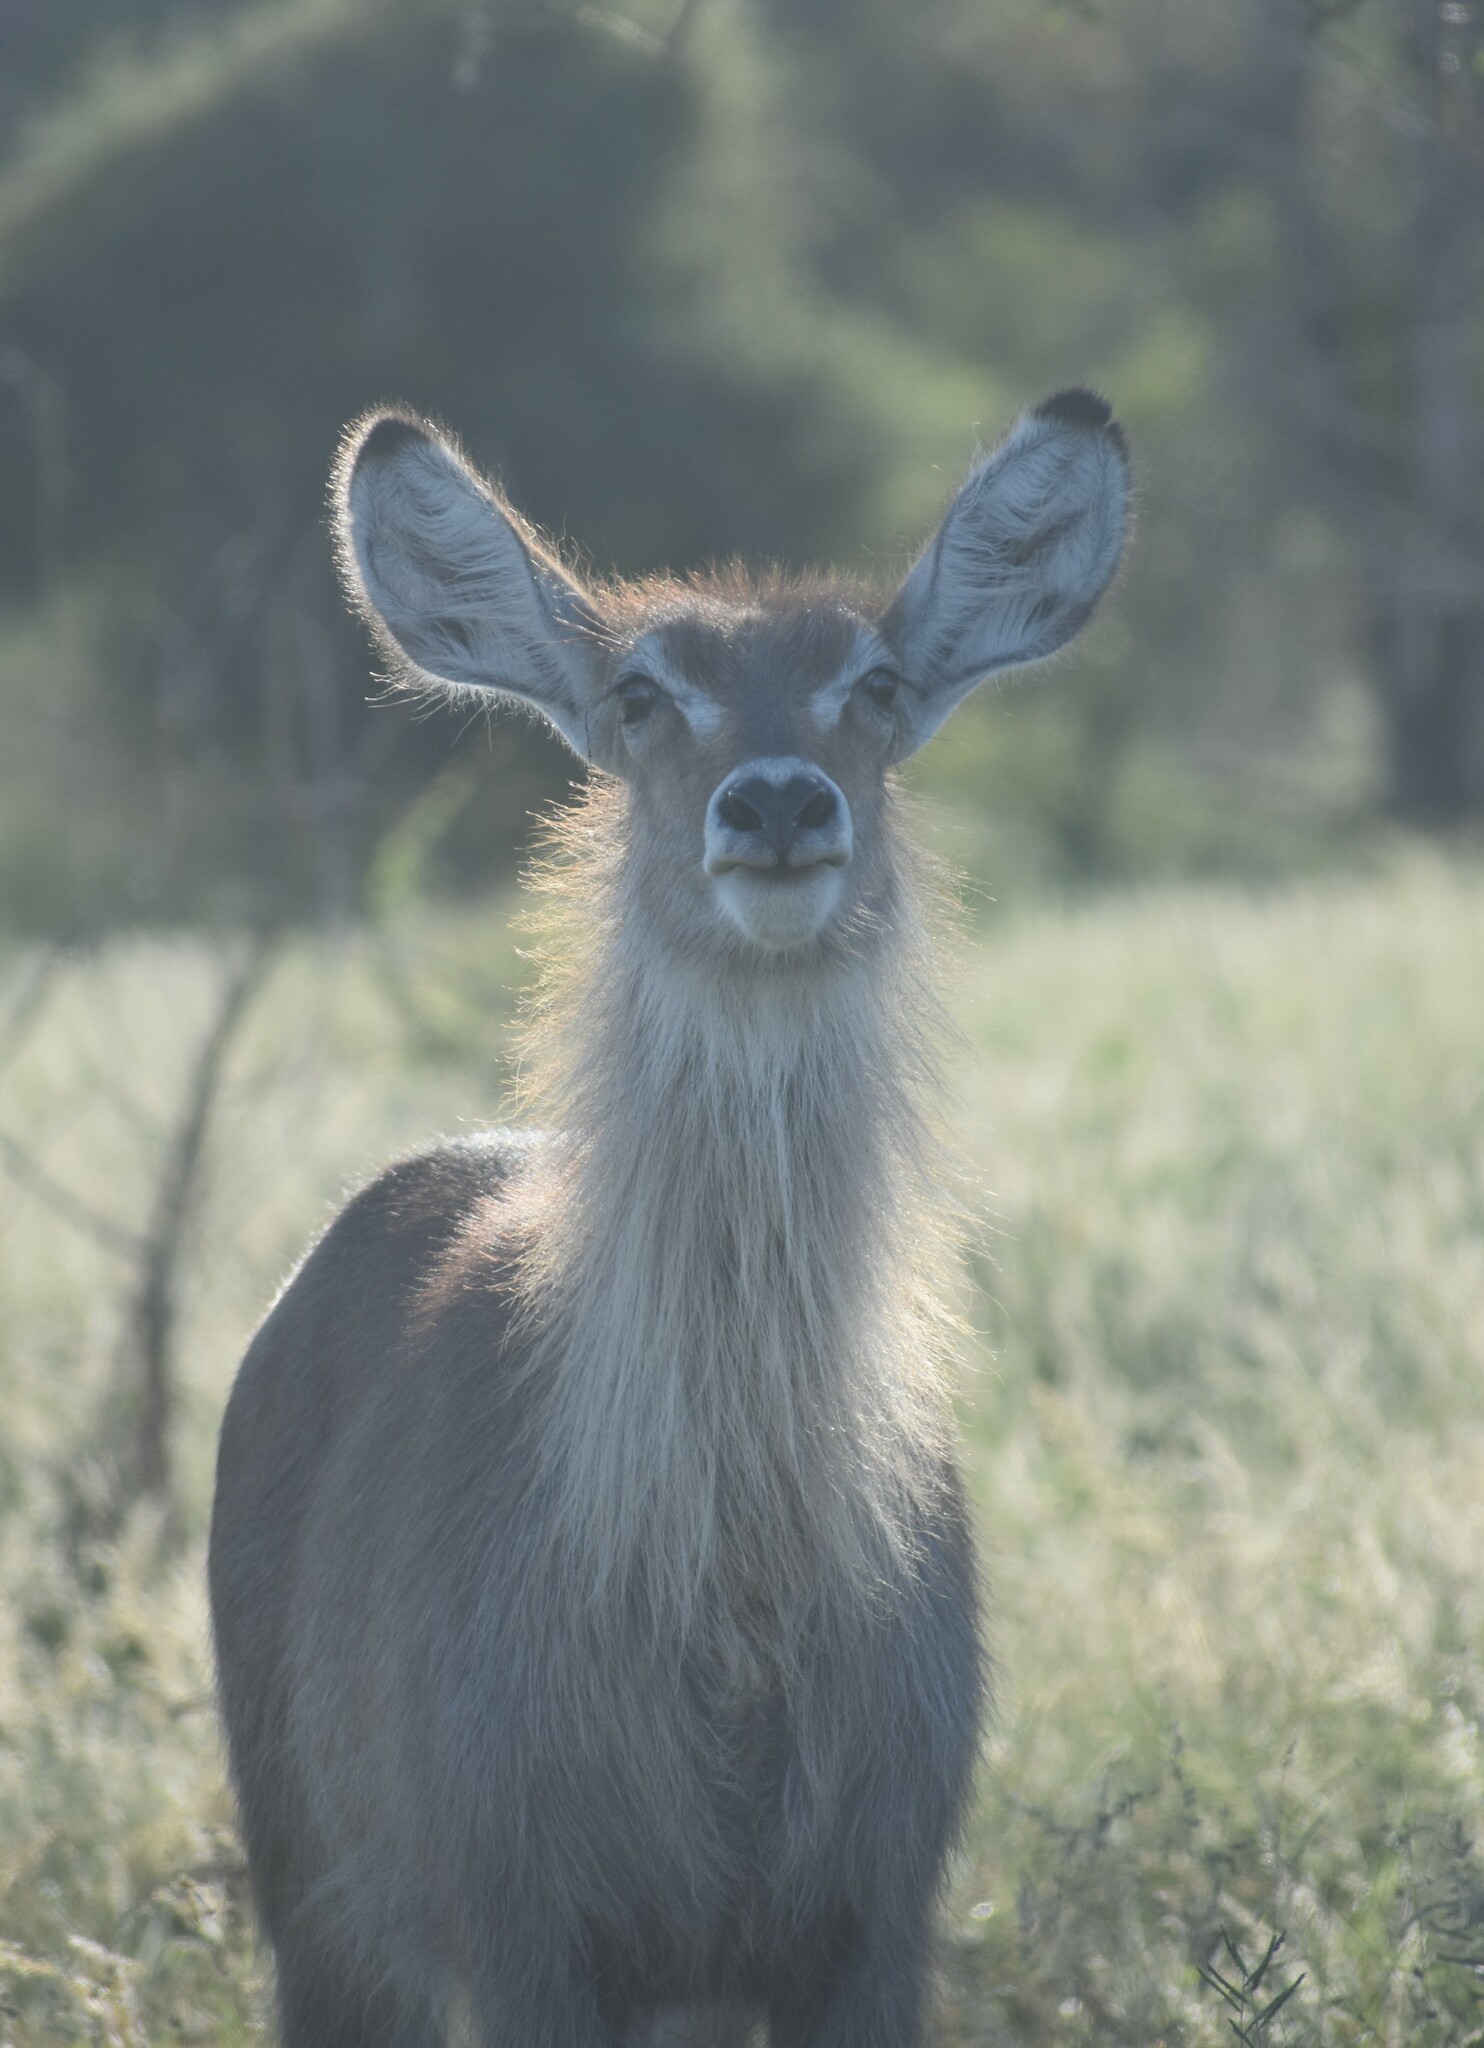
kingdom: Animalia
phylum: Chordata
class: Mammalia
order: Artiodactyla
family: Bovidae
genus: Kobus
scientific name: Kobus ellipsiprymnus
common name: Waterbuck
